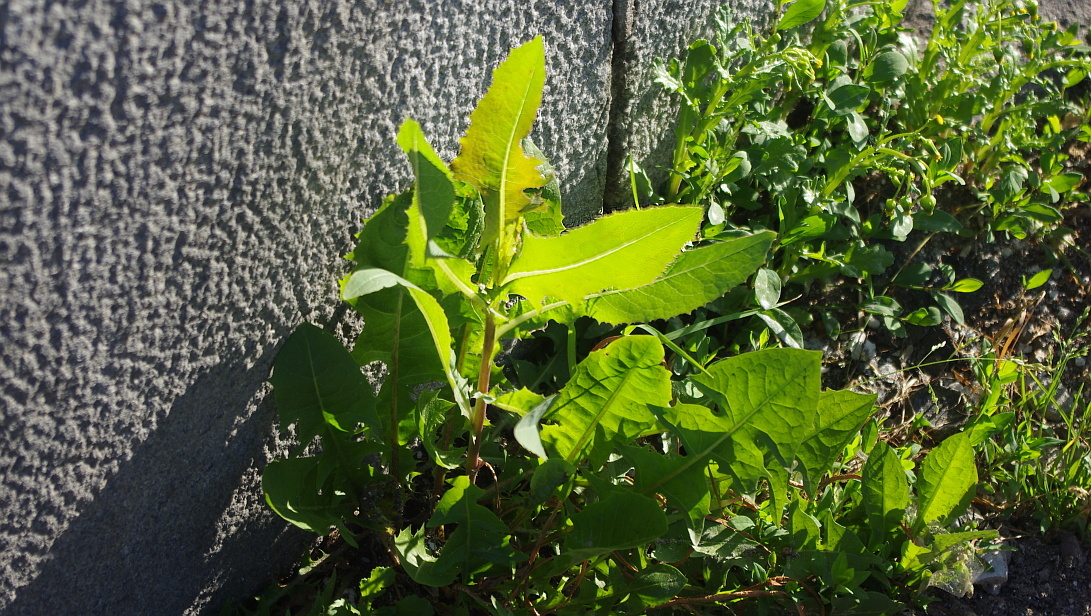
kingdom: Plantae
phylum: Tracheophyta
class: Magnoliopsida
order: Asterales
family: Asteraceae
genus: Lactuca
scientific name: Lactuca serriola
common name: Prickly lettuce
